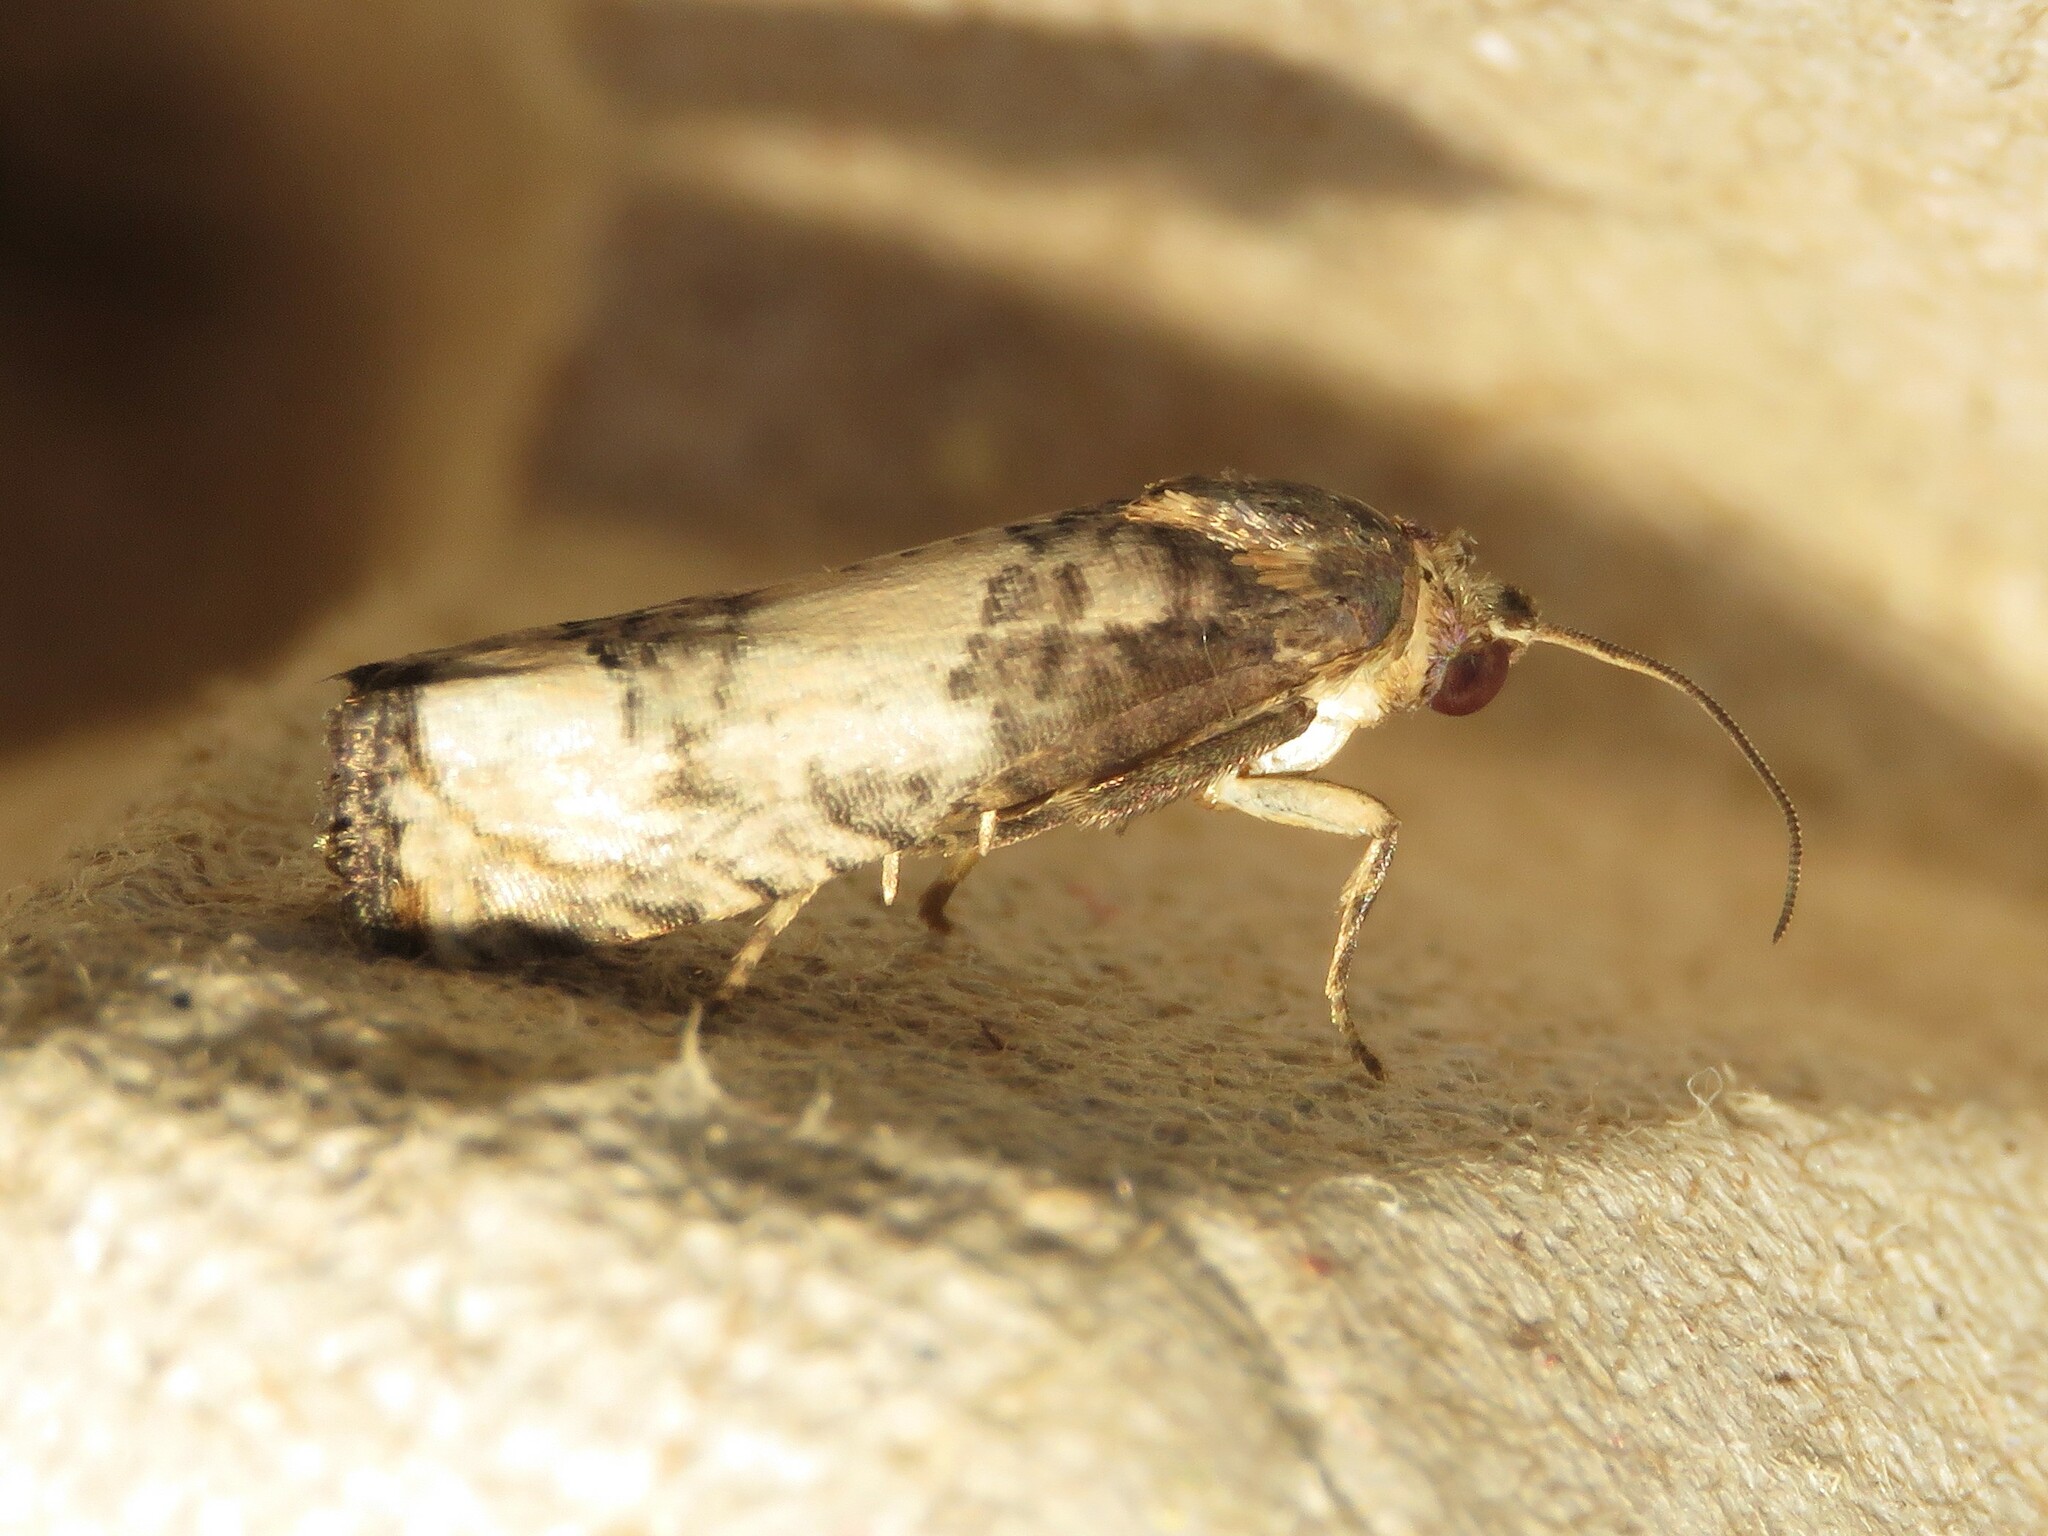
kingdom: Animalia
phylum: Arthropoda
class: Insecta
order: Lepidoptera
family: Tortricidae
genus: Epiblema
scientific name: Epiblema desertana
